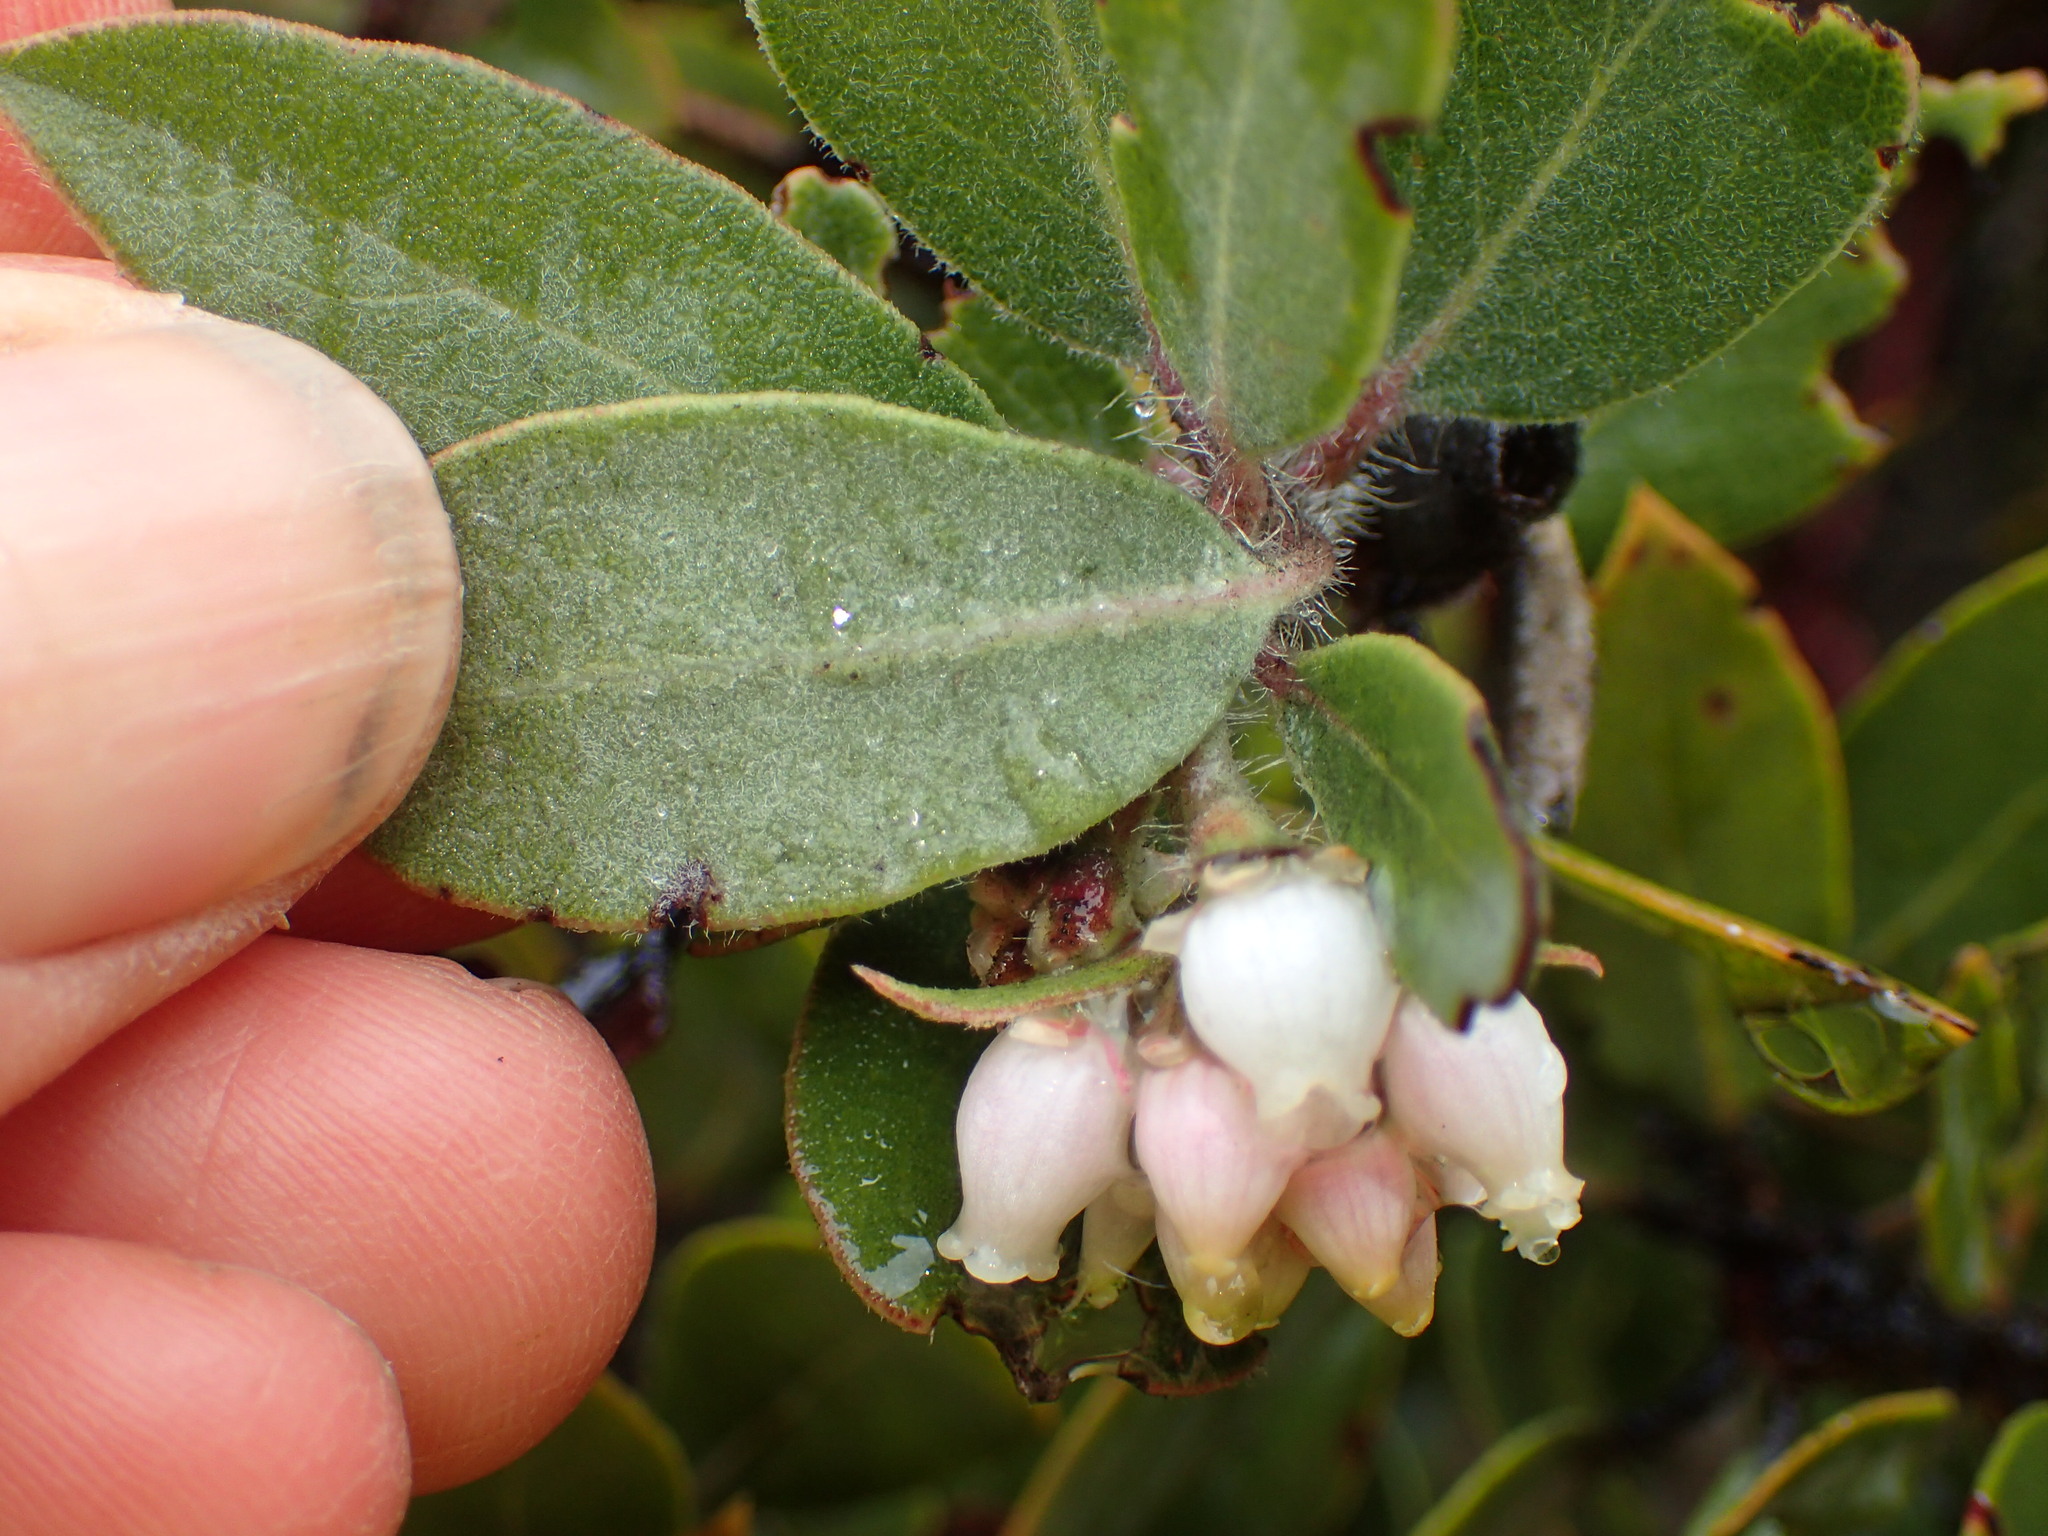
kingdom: Plantae
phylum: Tracheophyta
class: Magnoliopsida
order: Ericales
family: Ericaceae
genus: Arctostaphylos
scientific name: Arctostaphylos glandulosa
